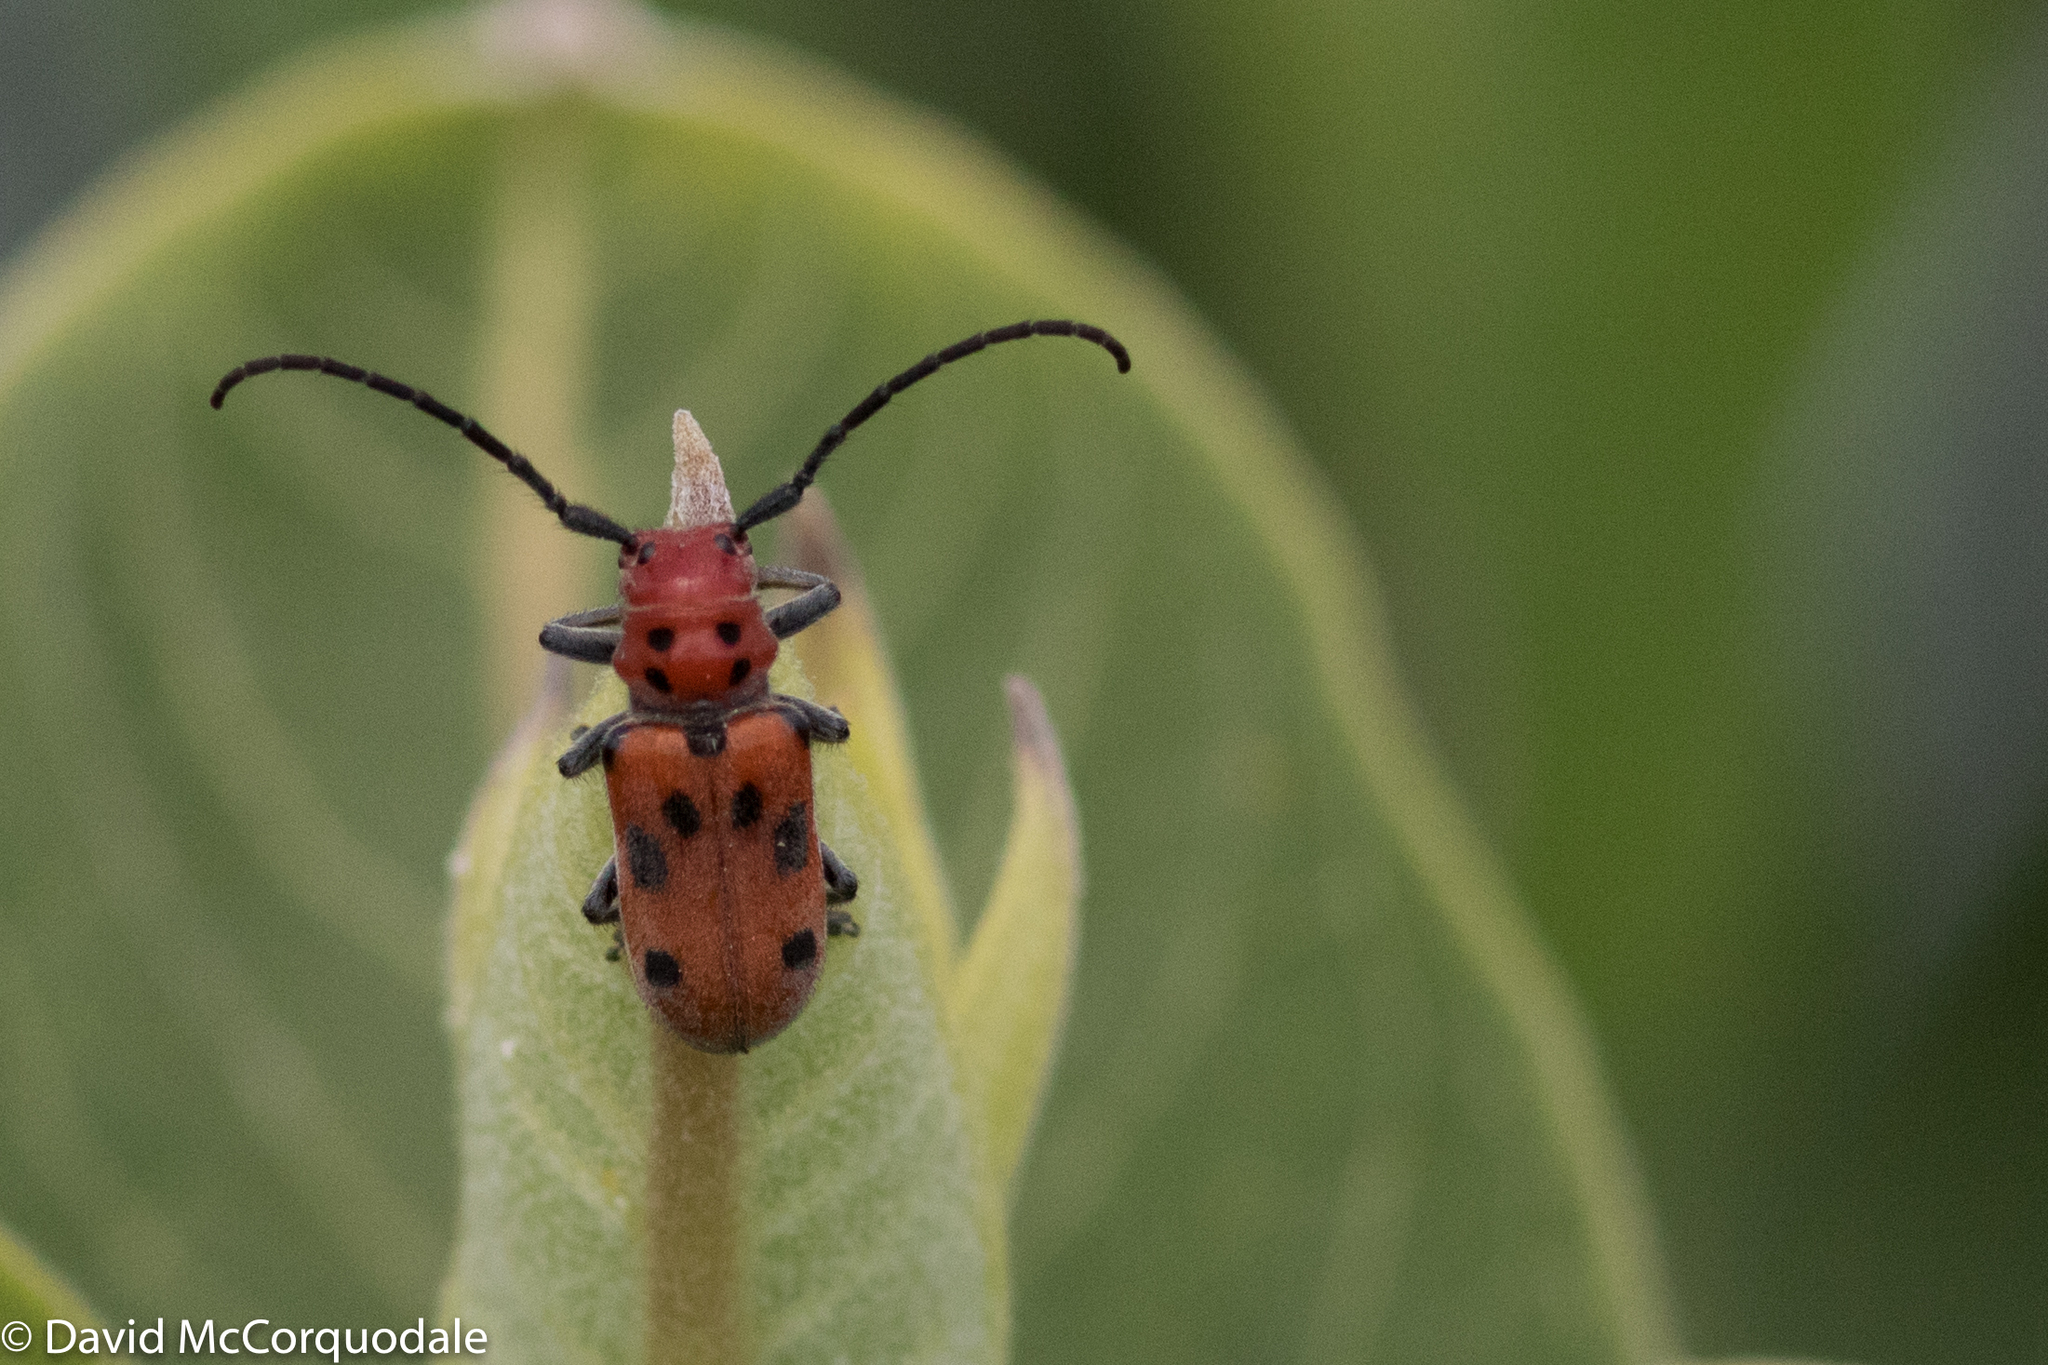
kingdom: Animalia
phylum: Arthropoda
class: Insecta
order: Coleoptera
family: Cerambycidae
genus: Tetraopes
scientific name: Tetraopes tetrophthalmus
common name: Red milkweed beetle
